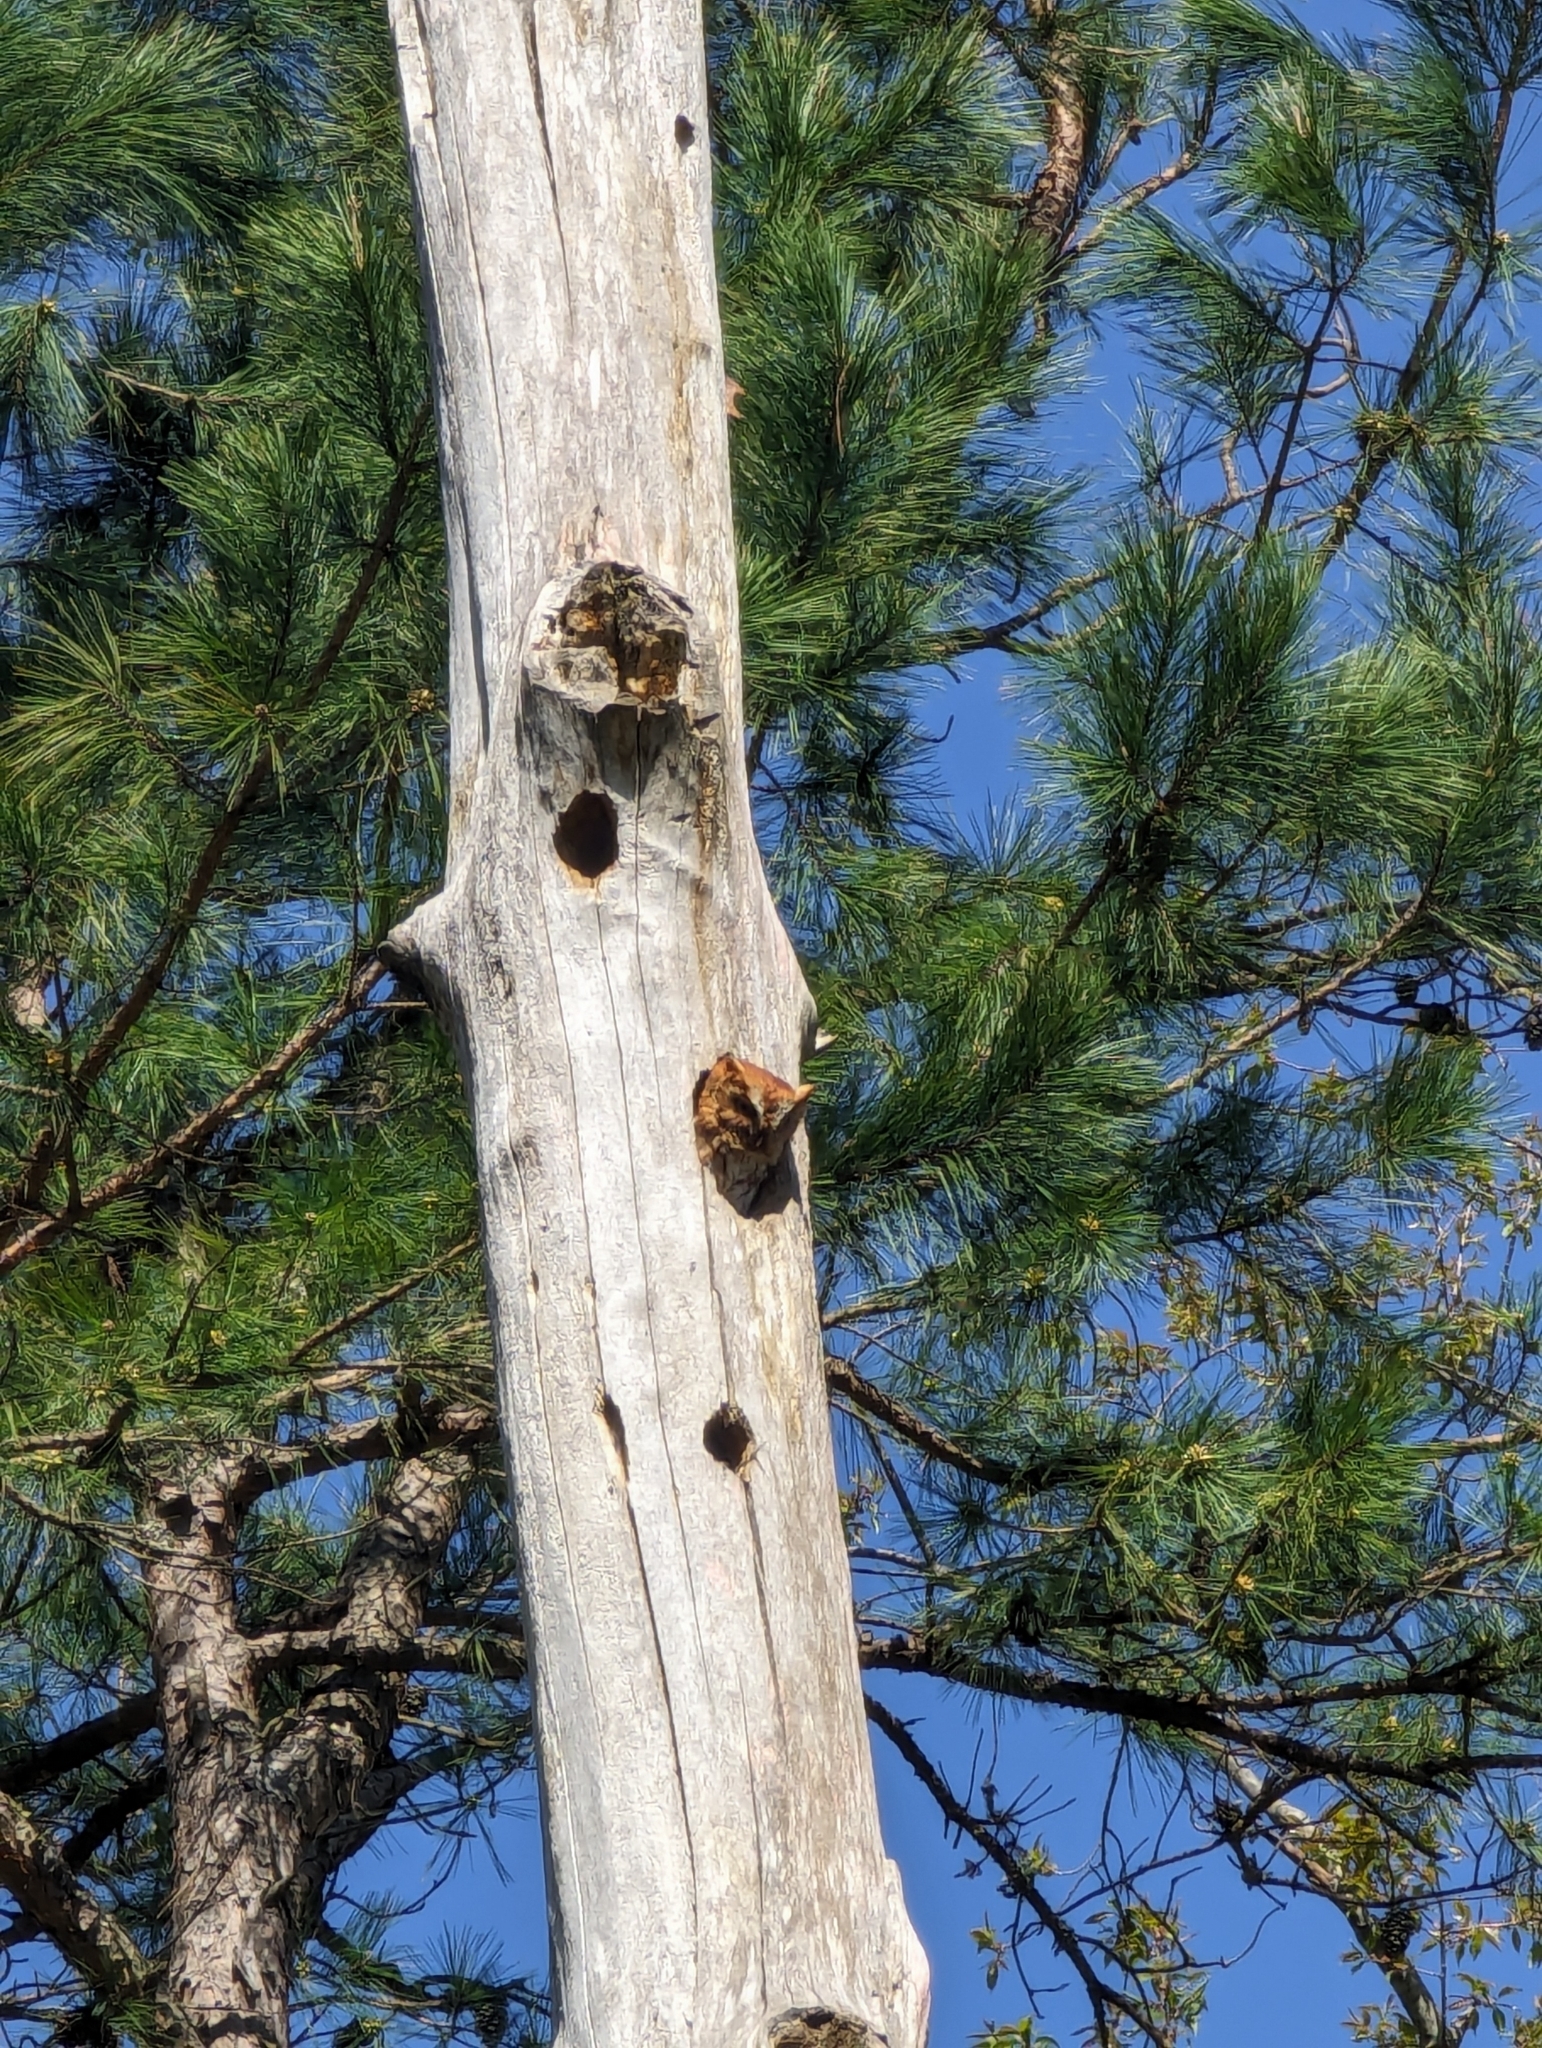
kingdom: Animalia
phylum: Chordata
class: Aves
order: Strigiformes
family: Strigidae
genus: Megascops
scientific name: Megascops asio
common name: Eastern screech-owl
